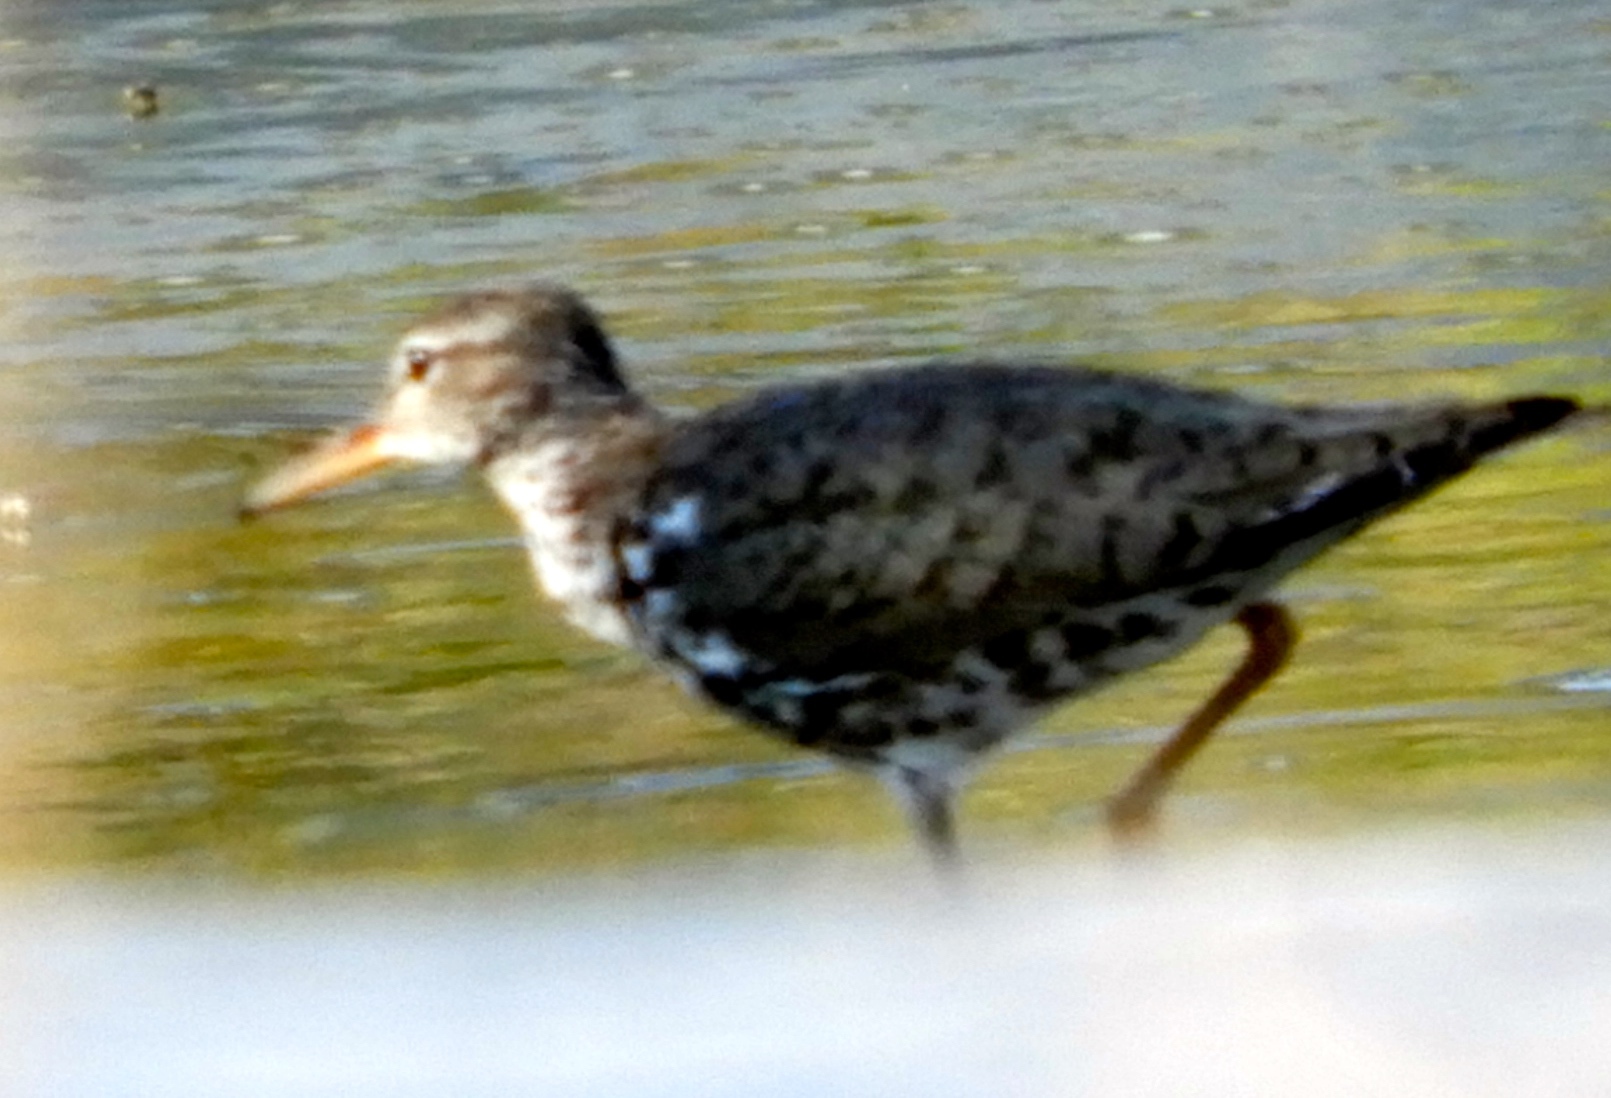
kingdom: Animalia
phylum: Chordata
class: Aves
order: Charadriiformes
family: Scolopacidae
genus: Actitis
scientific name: Actitis macularius
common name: Spotted sandpiper
